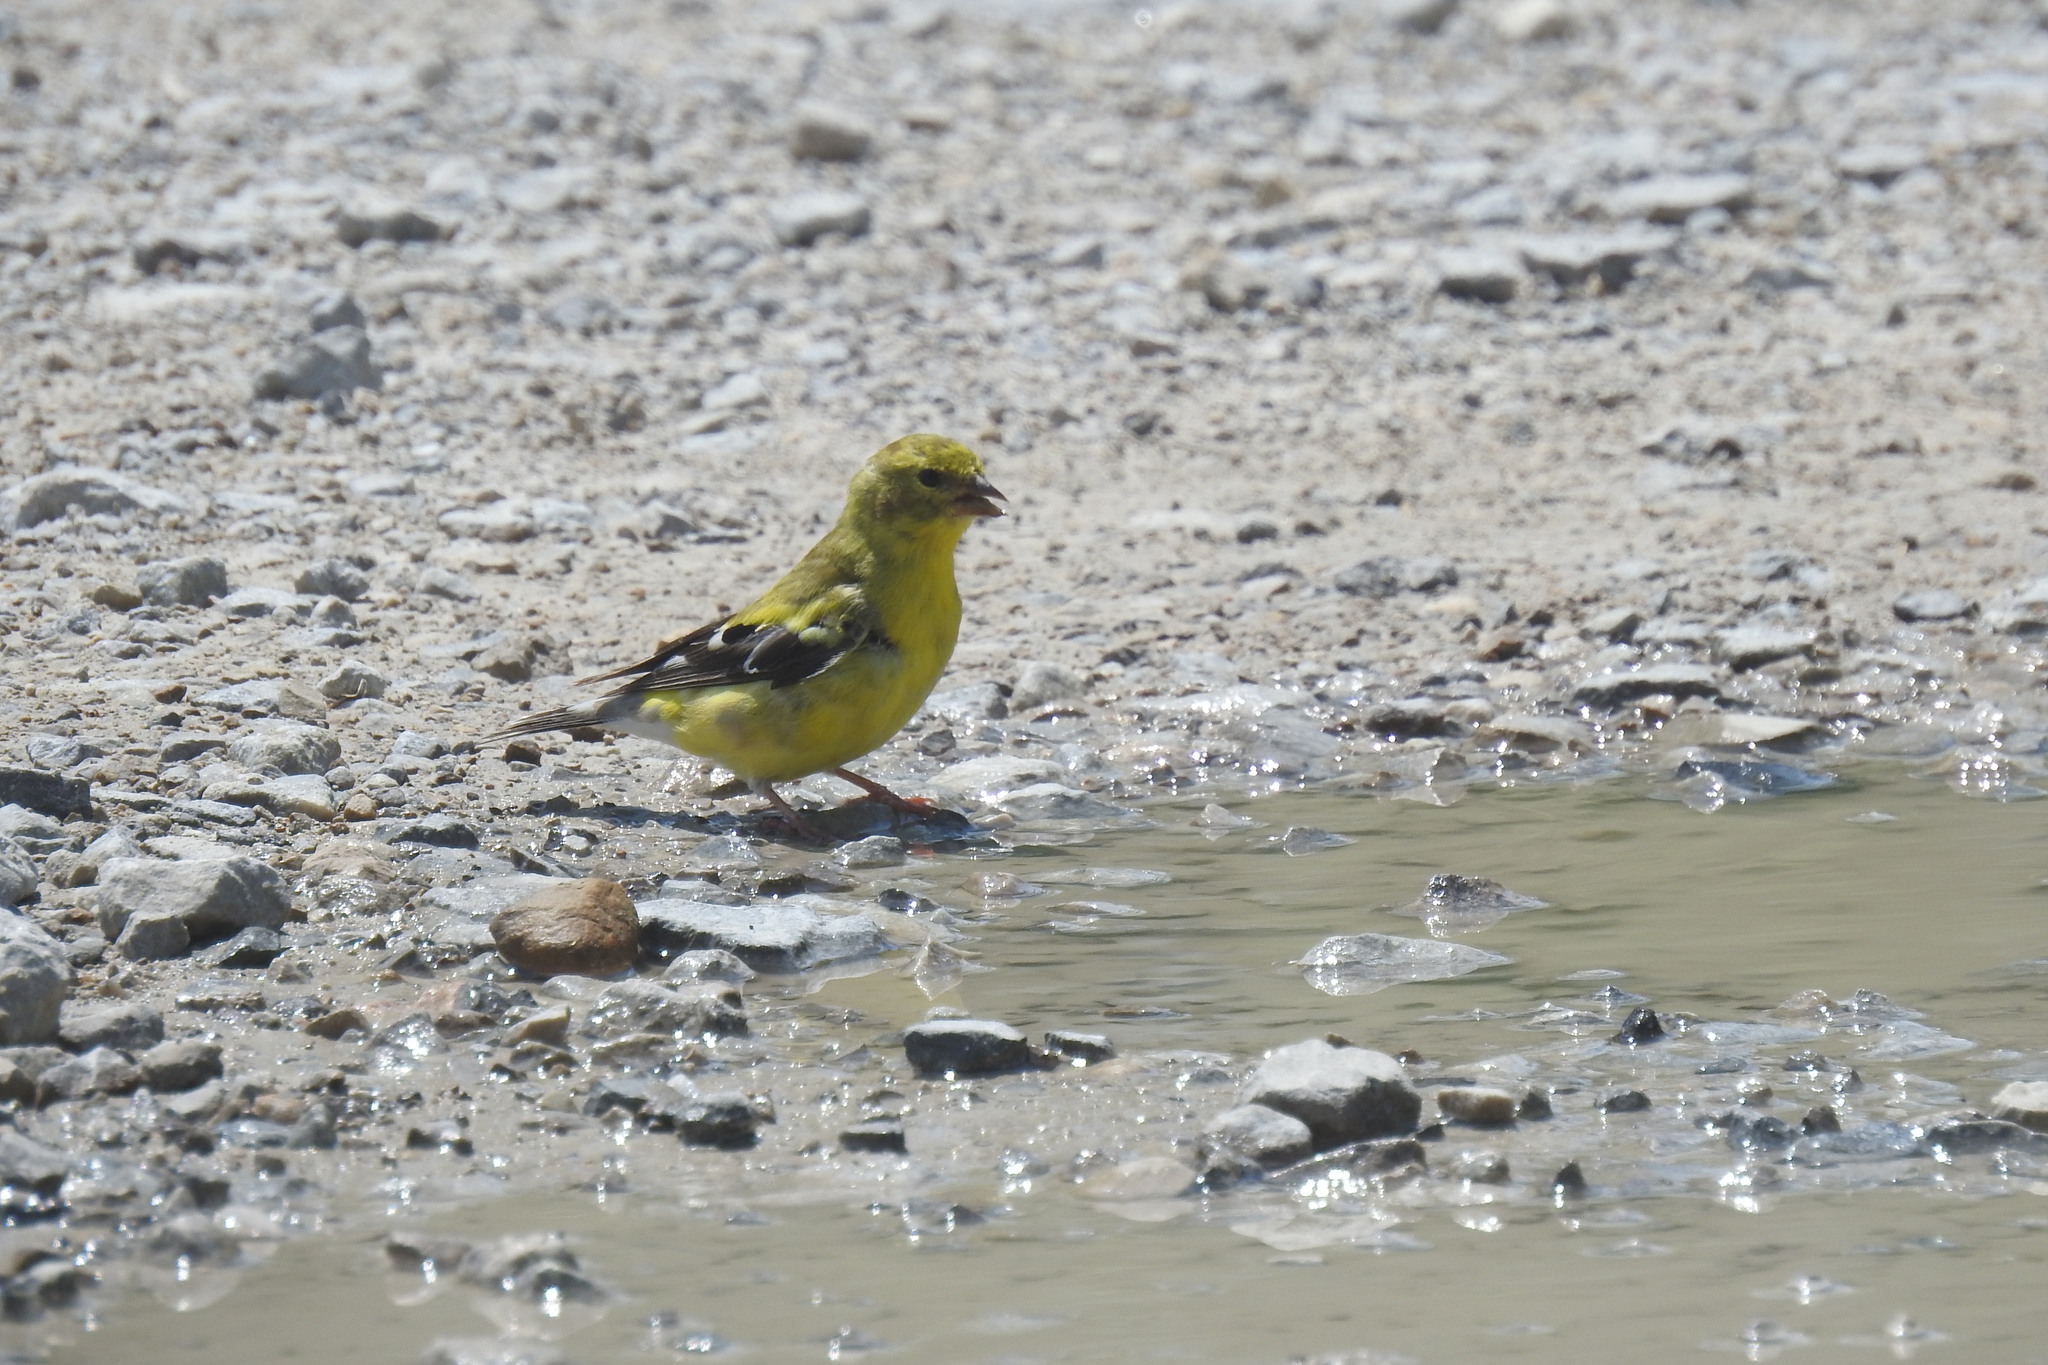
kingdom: Animalia
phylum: Chordata
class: Aves
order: Passeriformes
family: Fringillidae
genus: Spinus
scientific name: Spinus tristis
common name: American goldfinch
